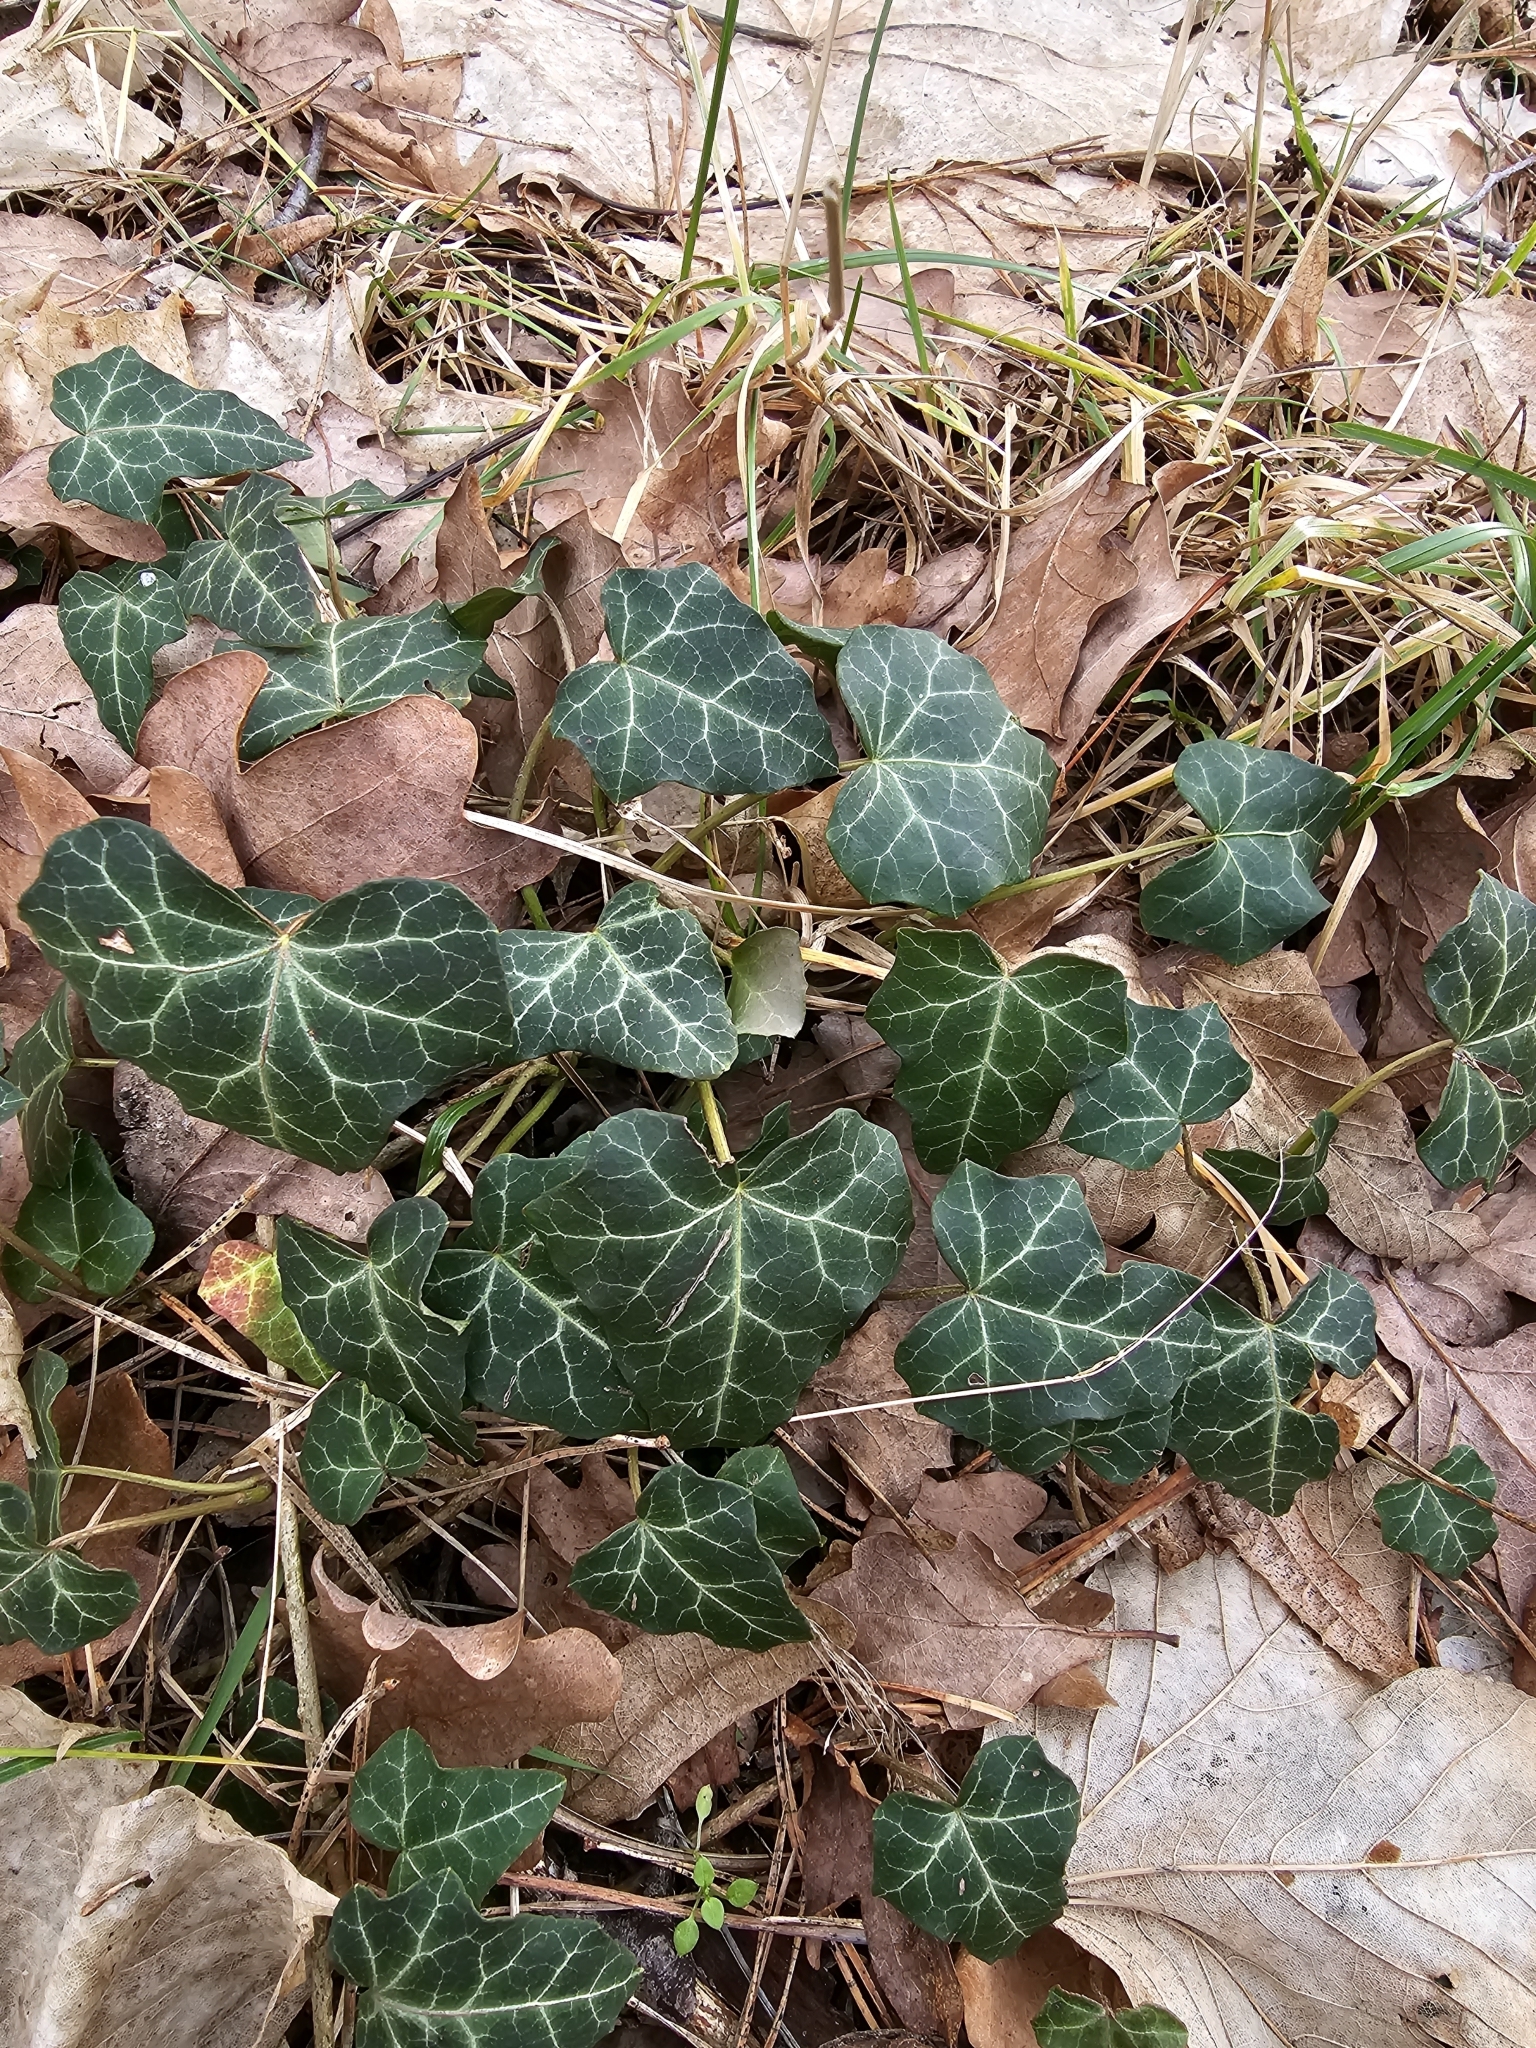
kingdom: Plantae
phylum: Tracheophyta
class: Magnoliopsida
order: Apiales
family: Araliaceae
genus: Hedera
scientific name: Hedera helix
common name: Ivy
